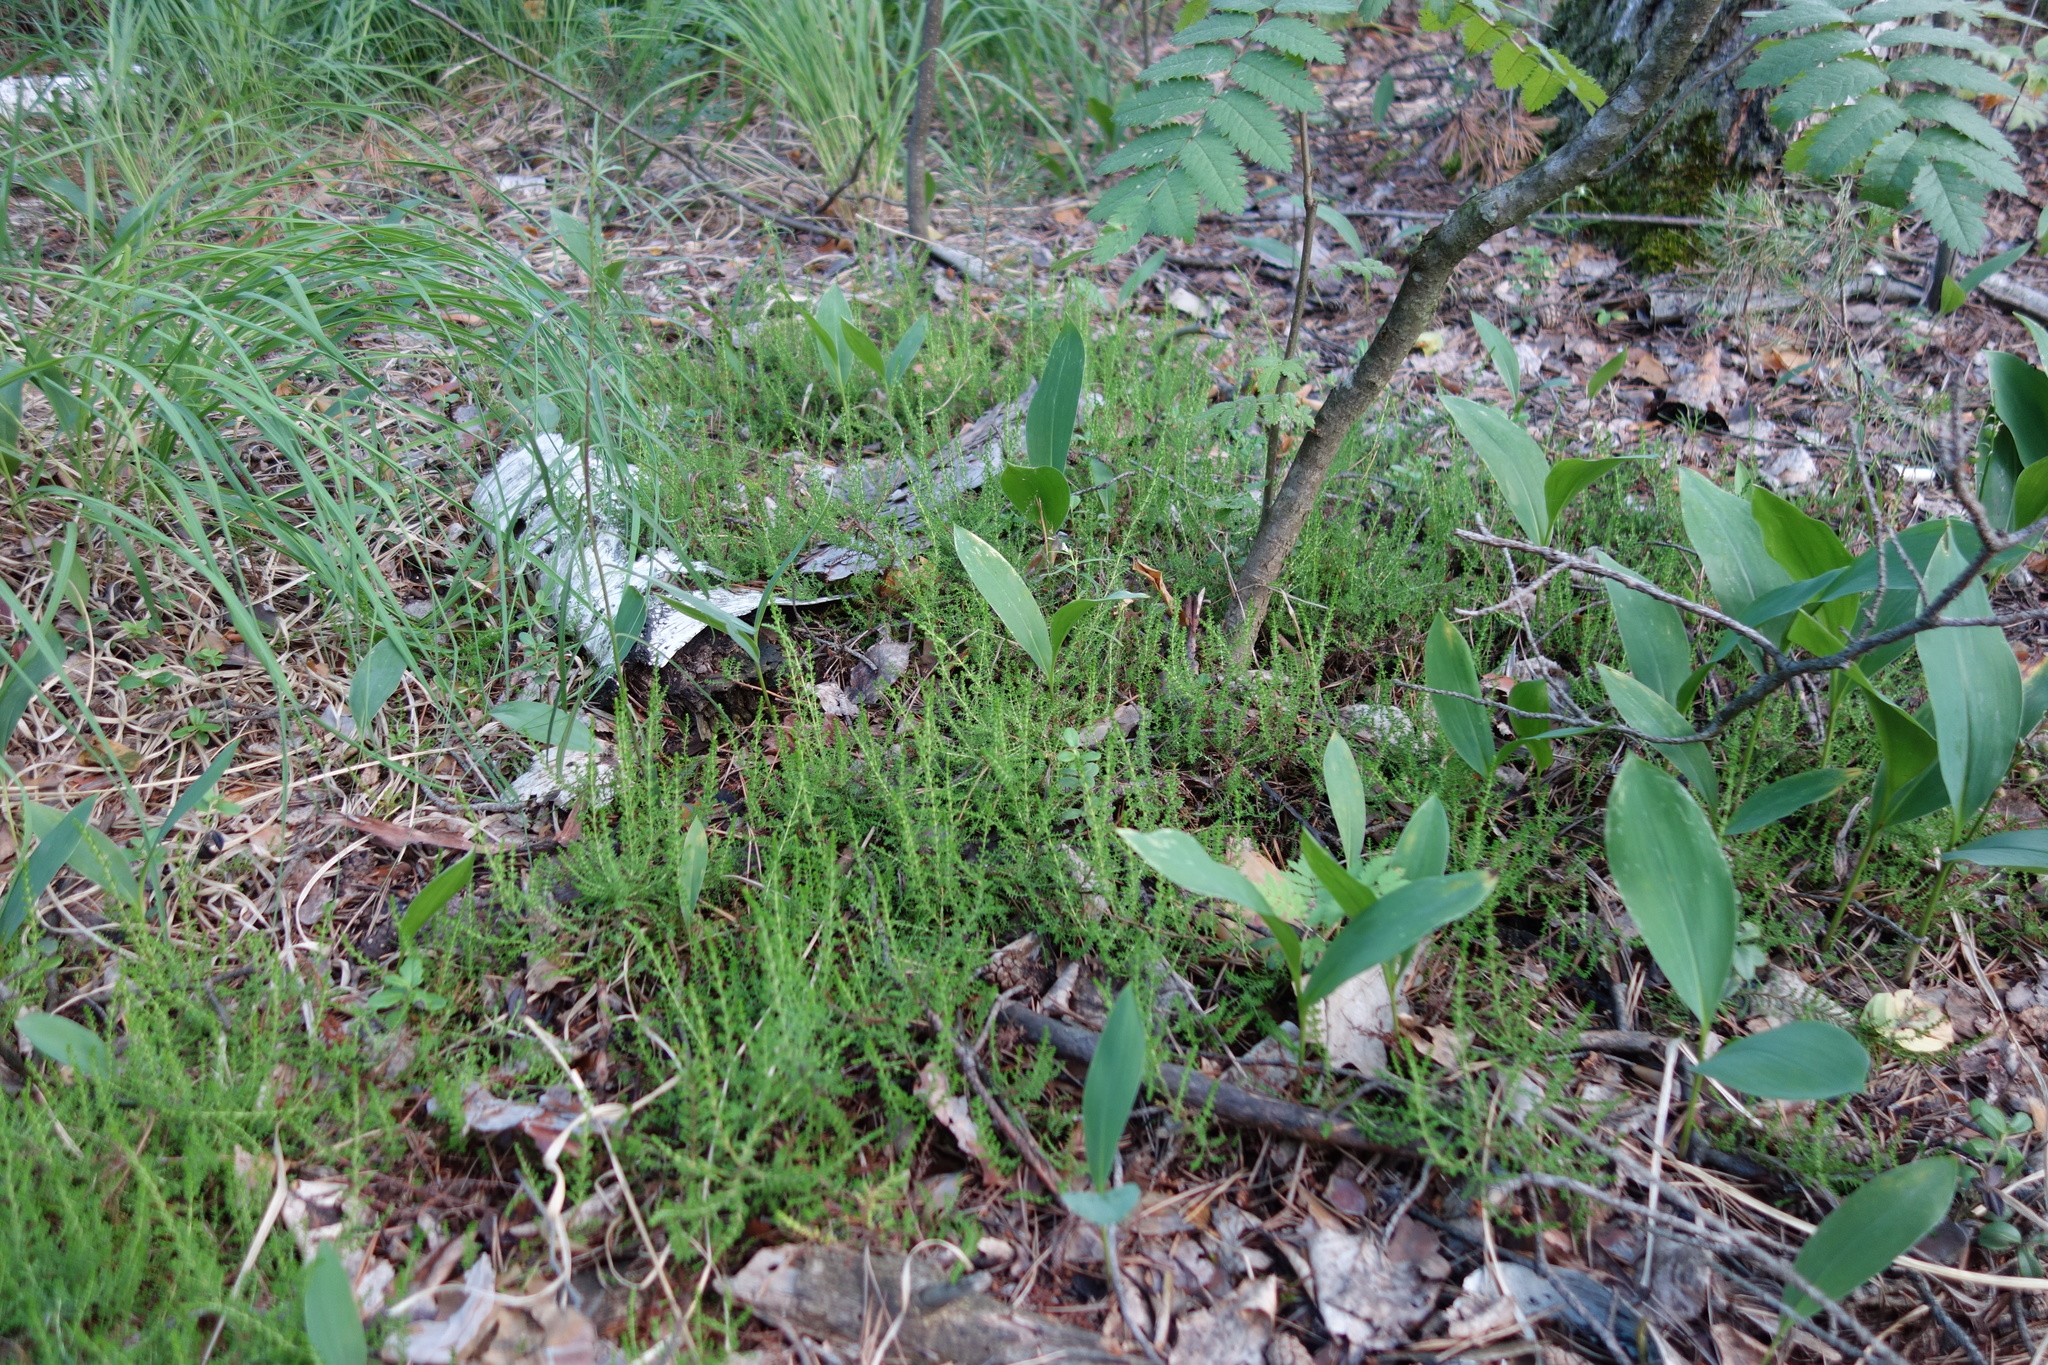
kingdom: Plantae
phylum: Tracheophyta
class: Magnoliopsida
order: Ericales
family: Ericaceae
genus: Calluna
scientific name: Calluna vulgaris
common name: Heather
